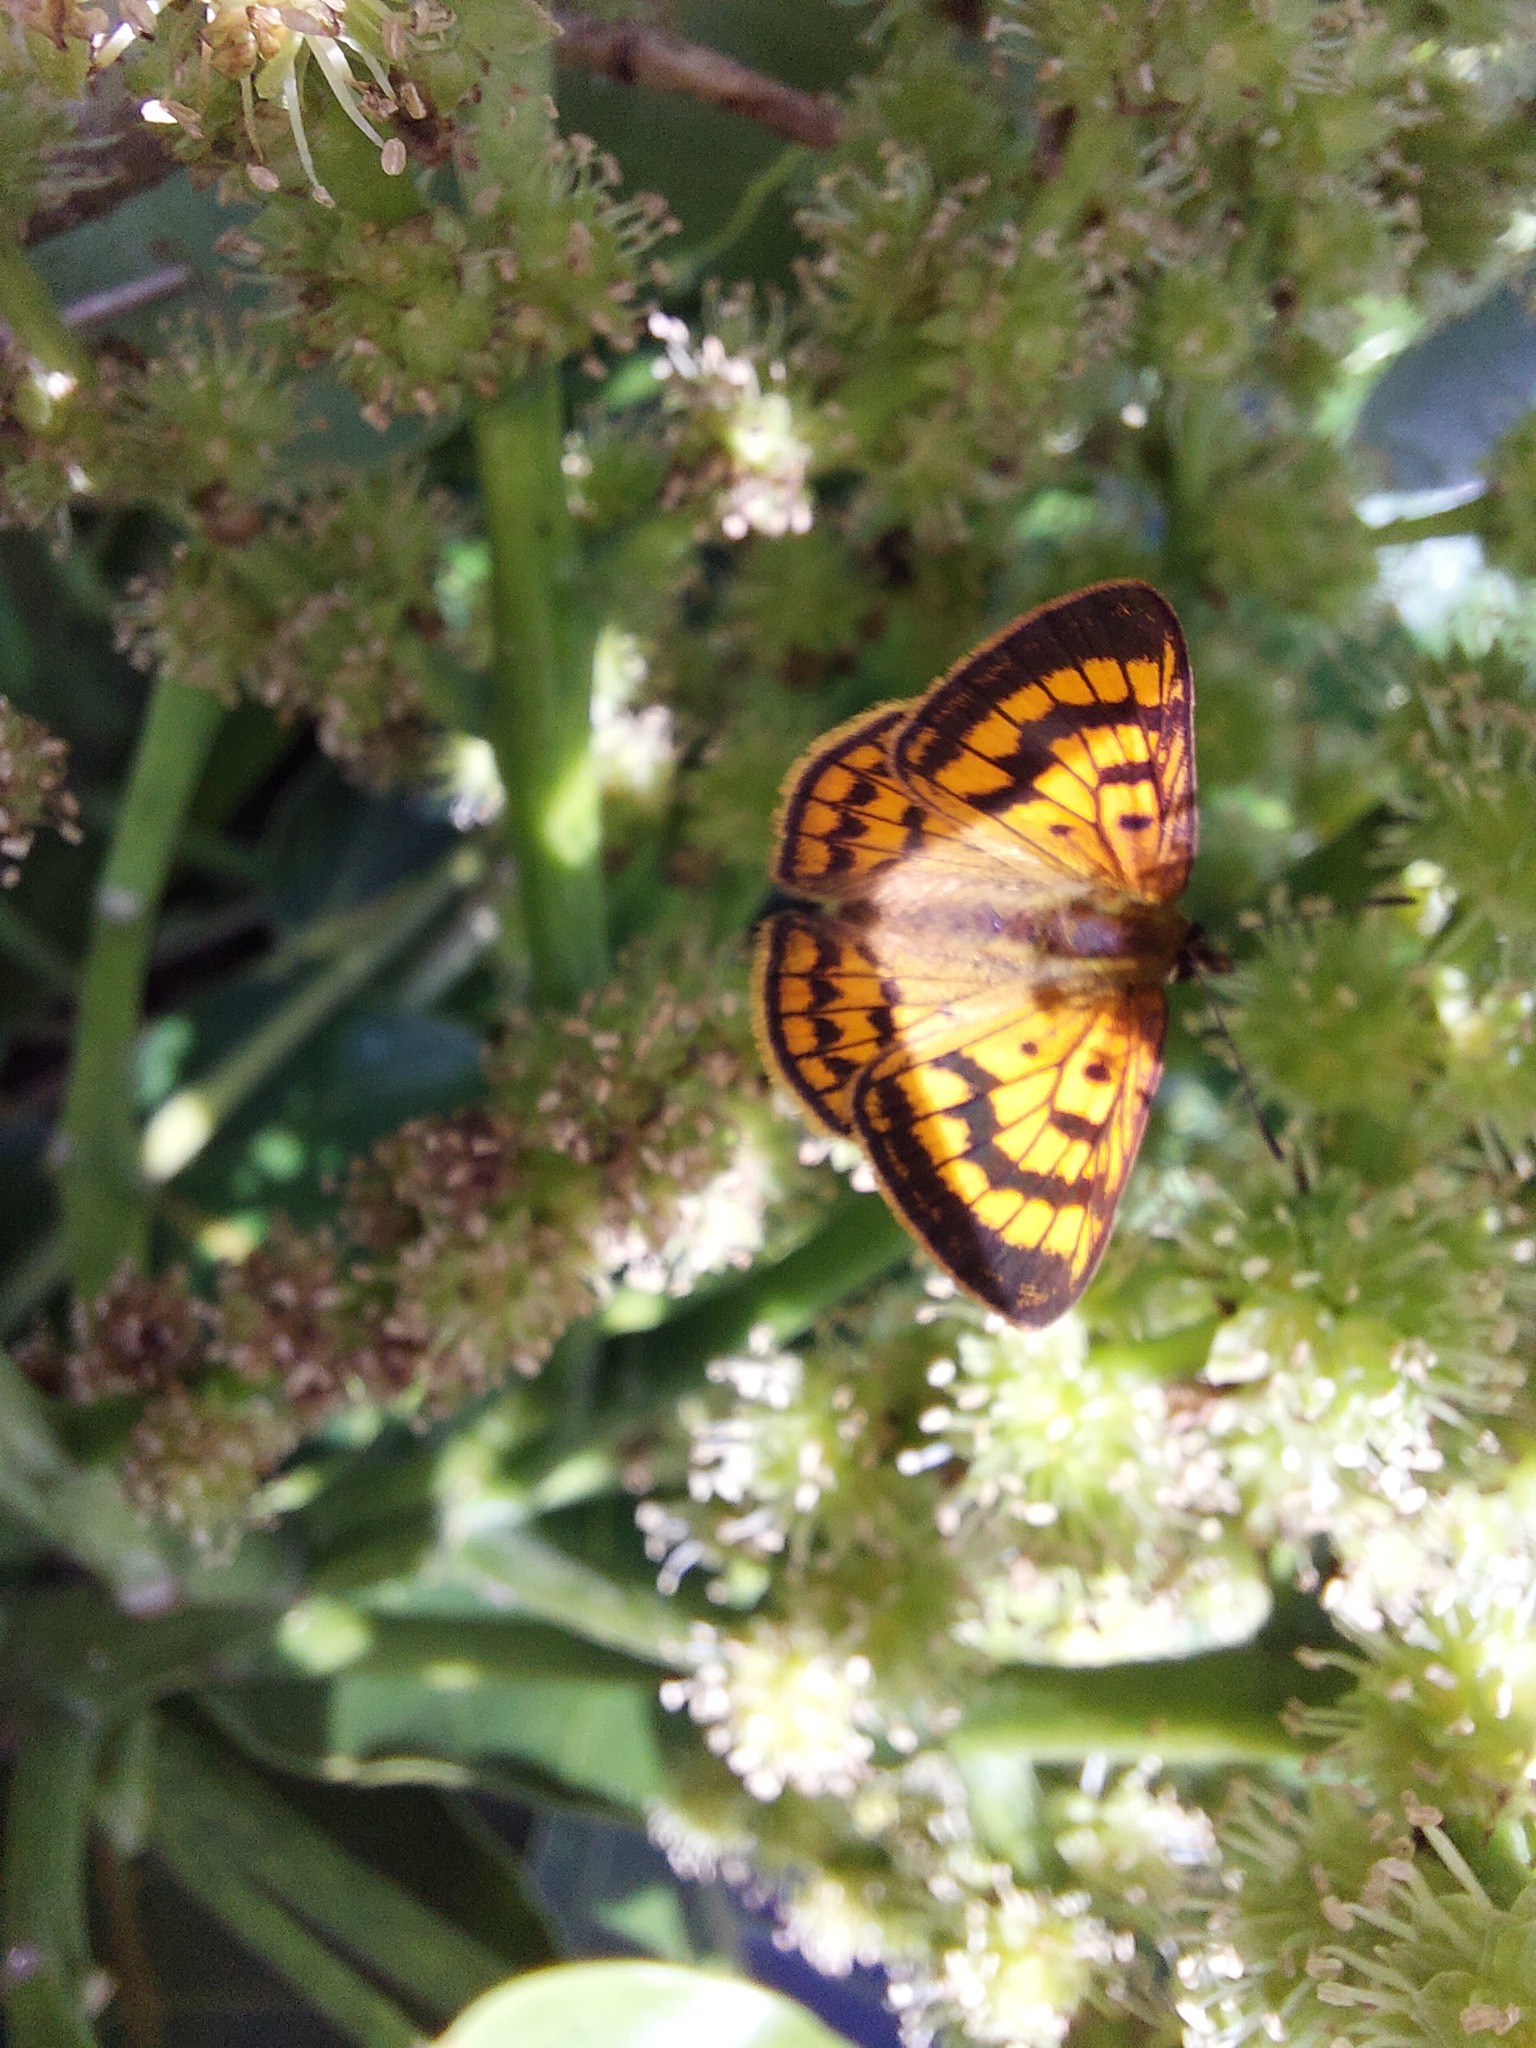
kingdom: Animalia
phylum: Arthropoda
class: Insecta
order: Lepidoptera
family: Lycaenidae
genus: Lycaena
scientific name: Lycaena salustius
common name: North island coastal copper
